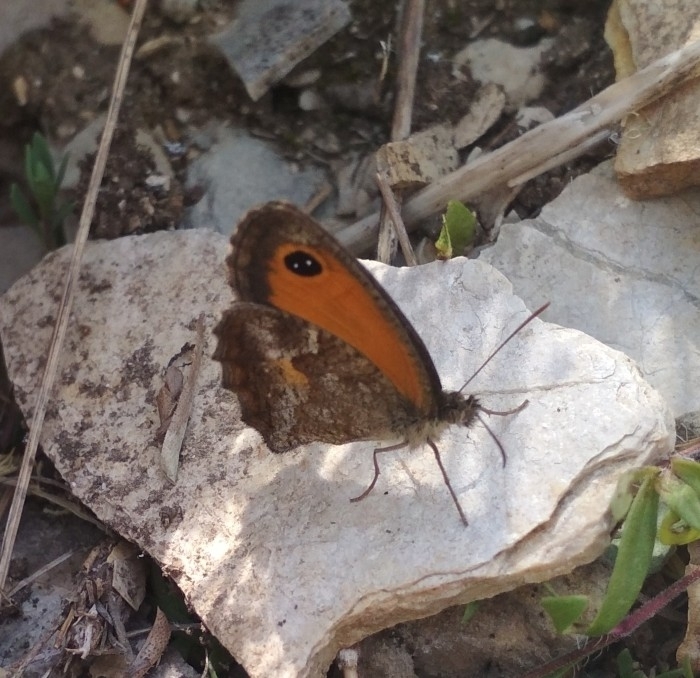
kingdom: Animalia
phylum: Arthropoda
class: Insecta
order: Lepidoptera
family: Nymphalidae
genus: Pyronia
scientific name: Pyronia tithonus
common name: Gatekeeper
